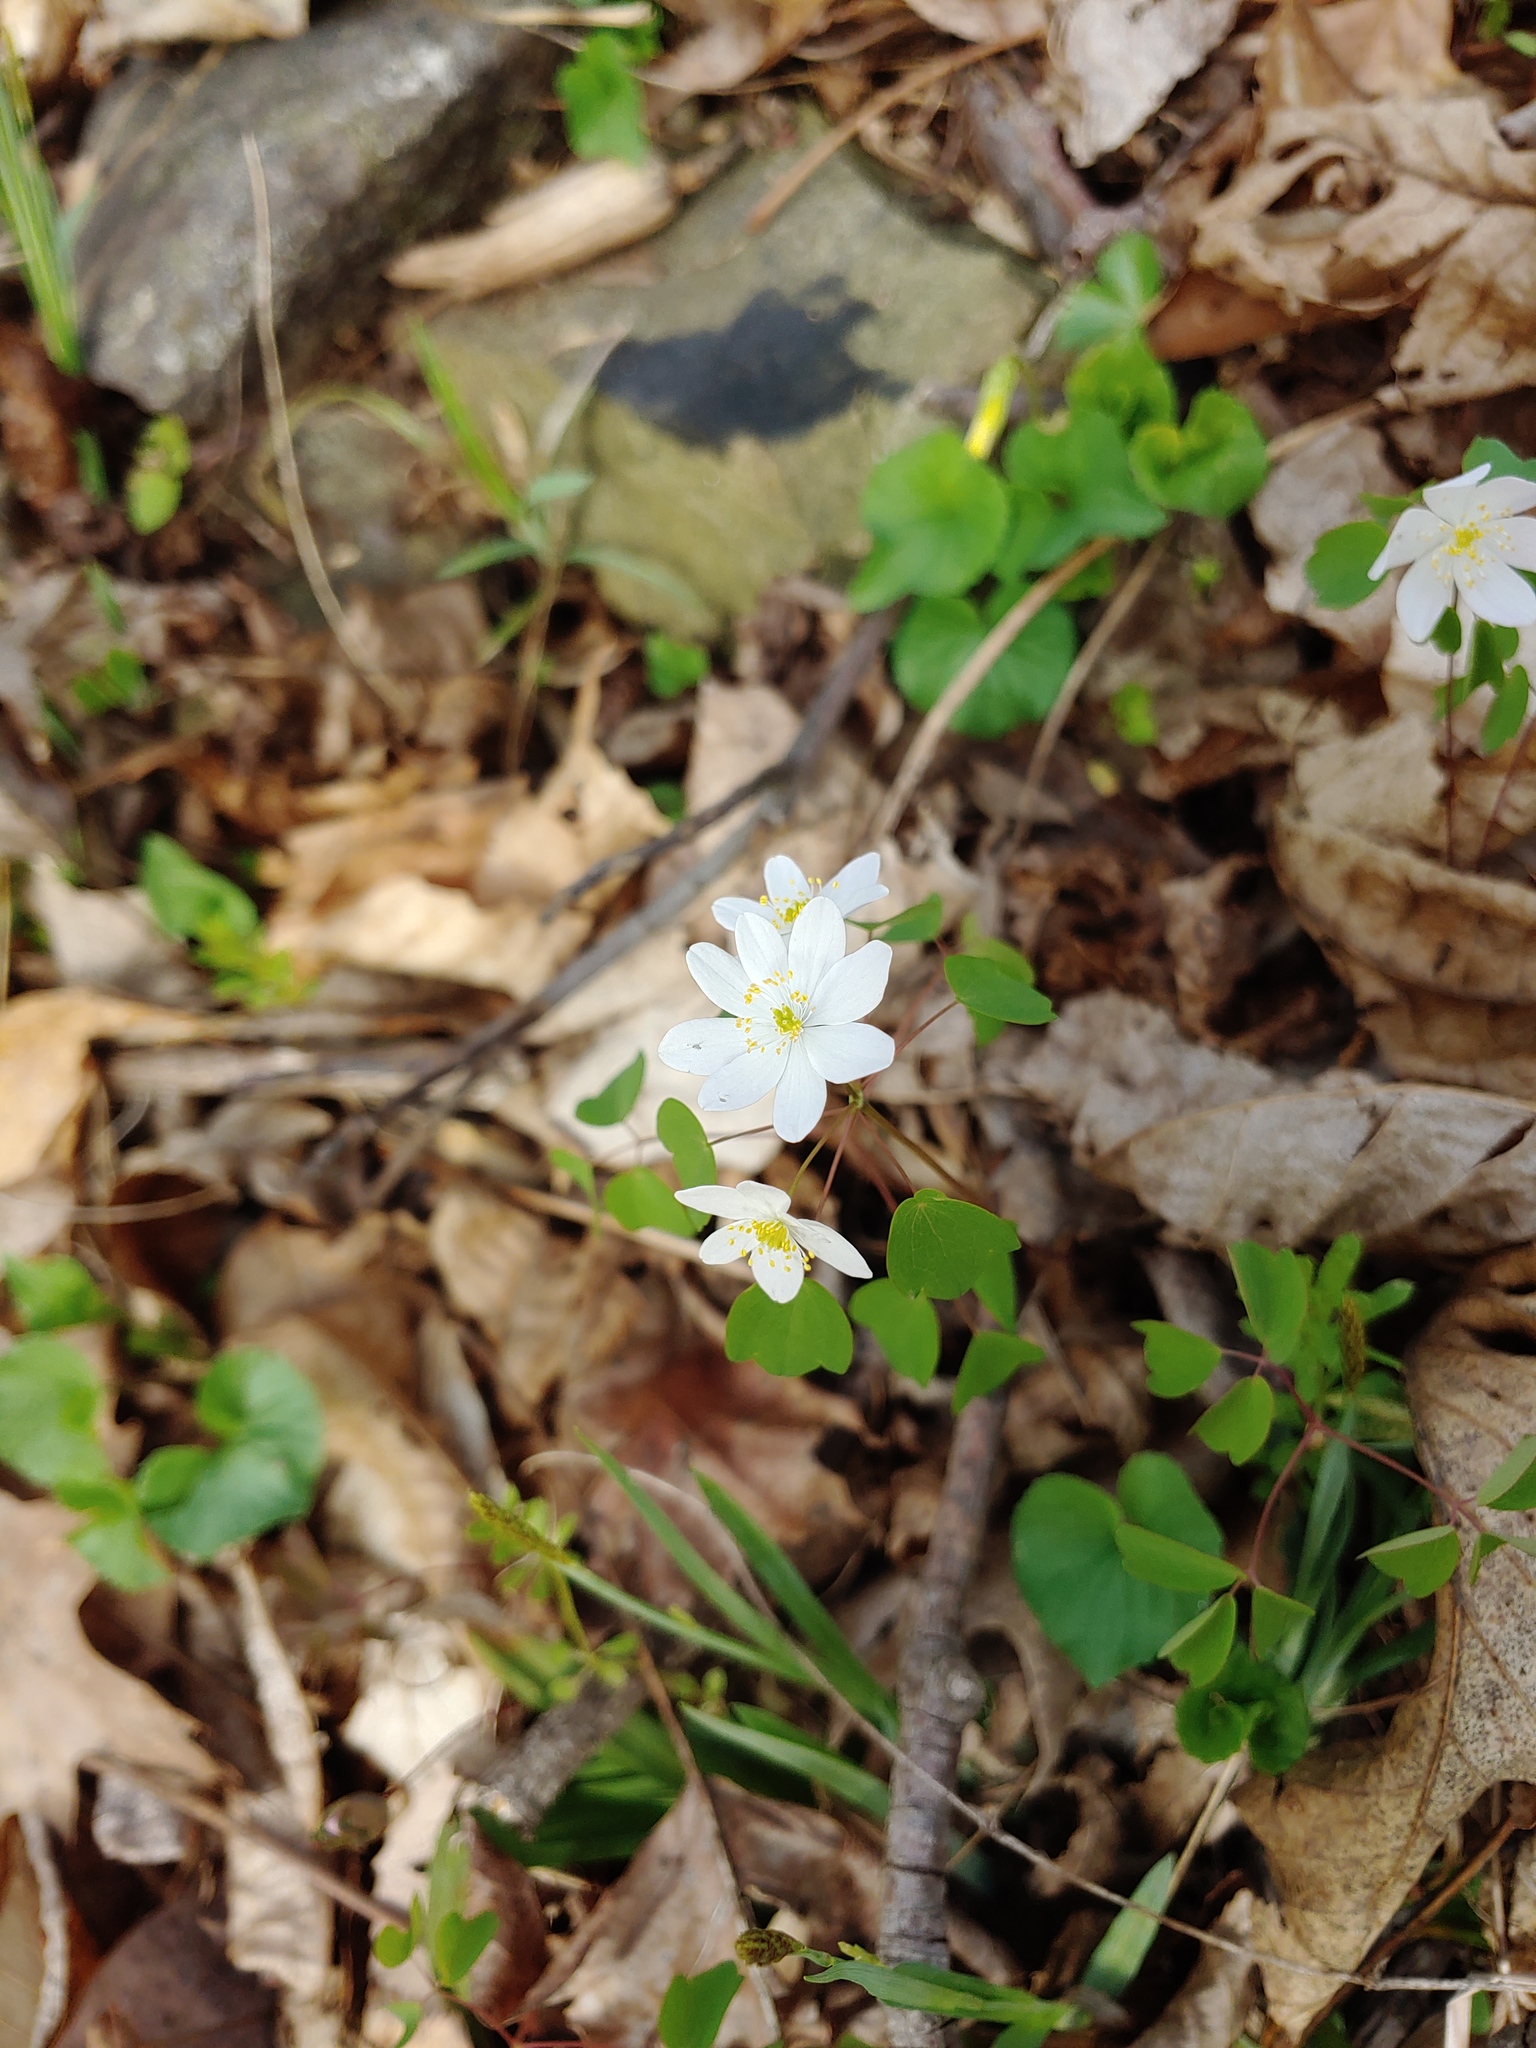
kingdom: Plantae
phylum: Tracheophyta
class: Magnoliopsida
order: Ranunculales
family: Ranunculaceae
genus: Thalictrum
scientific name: Thalictrum thalictroides
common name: Rue-anemone
